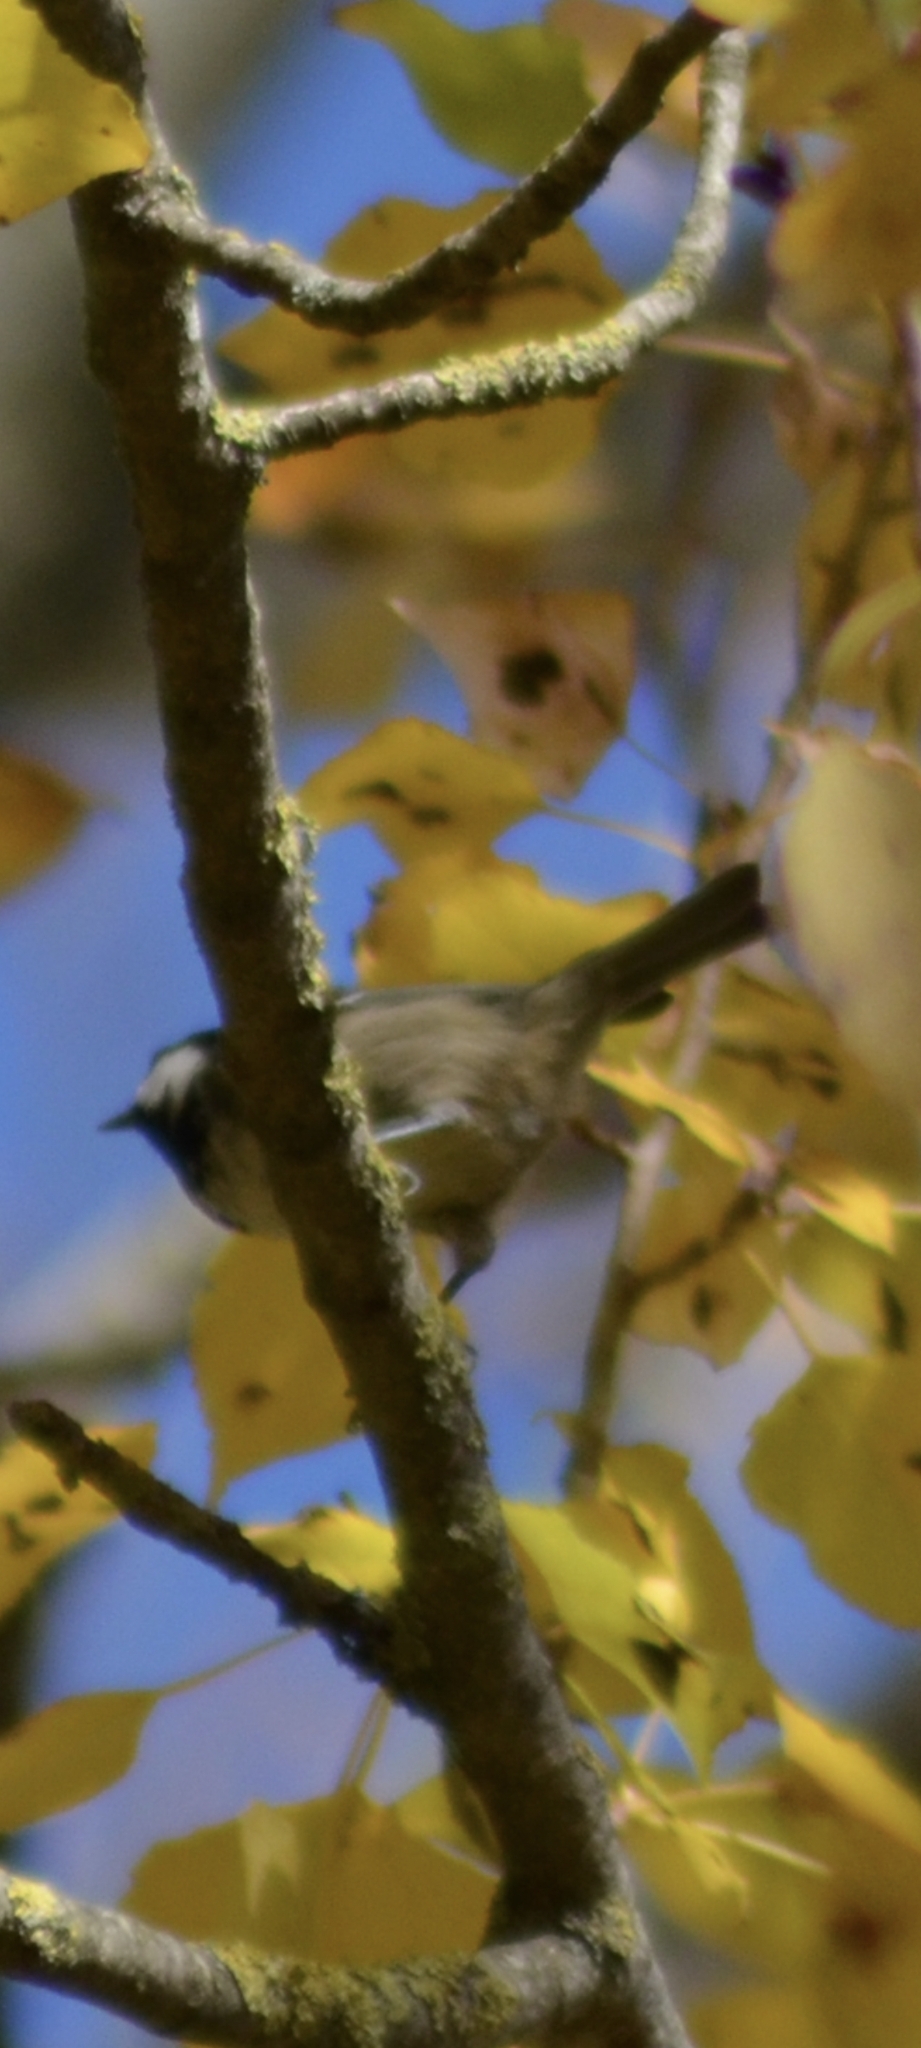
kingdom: Animalia
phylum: Chordata
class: Aves
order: Passeriformes
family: Paridae
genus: Periparus
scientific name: Periparus ater
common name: Coal tit
